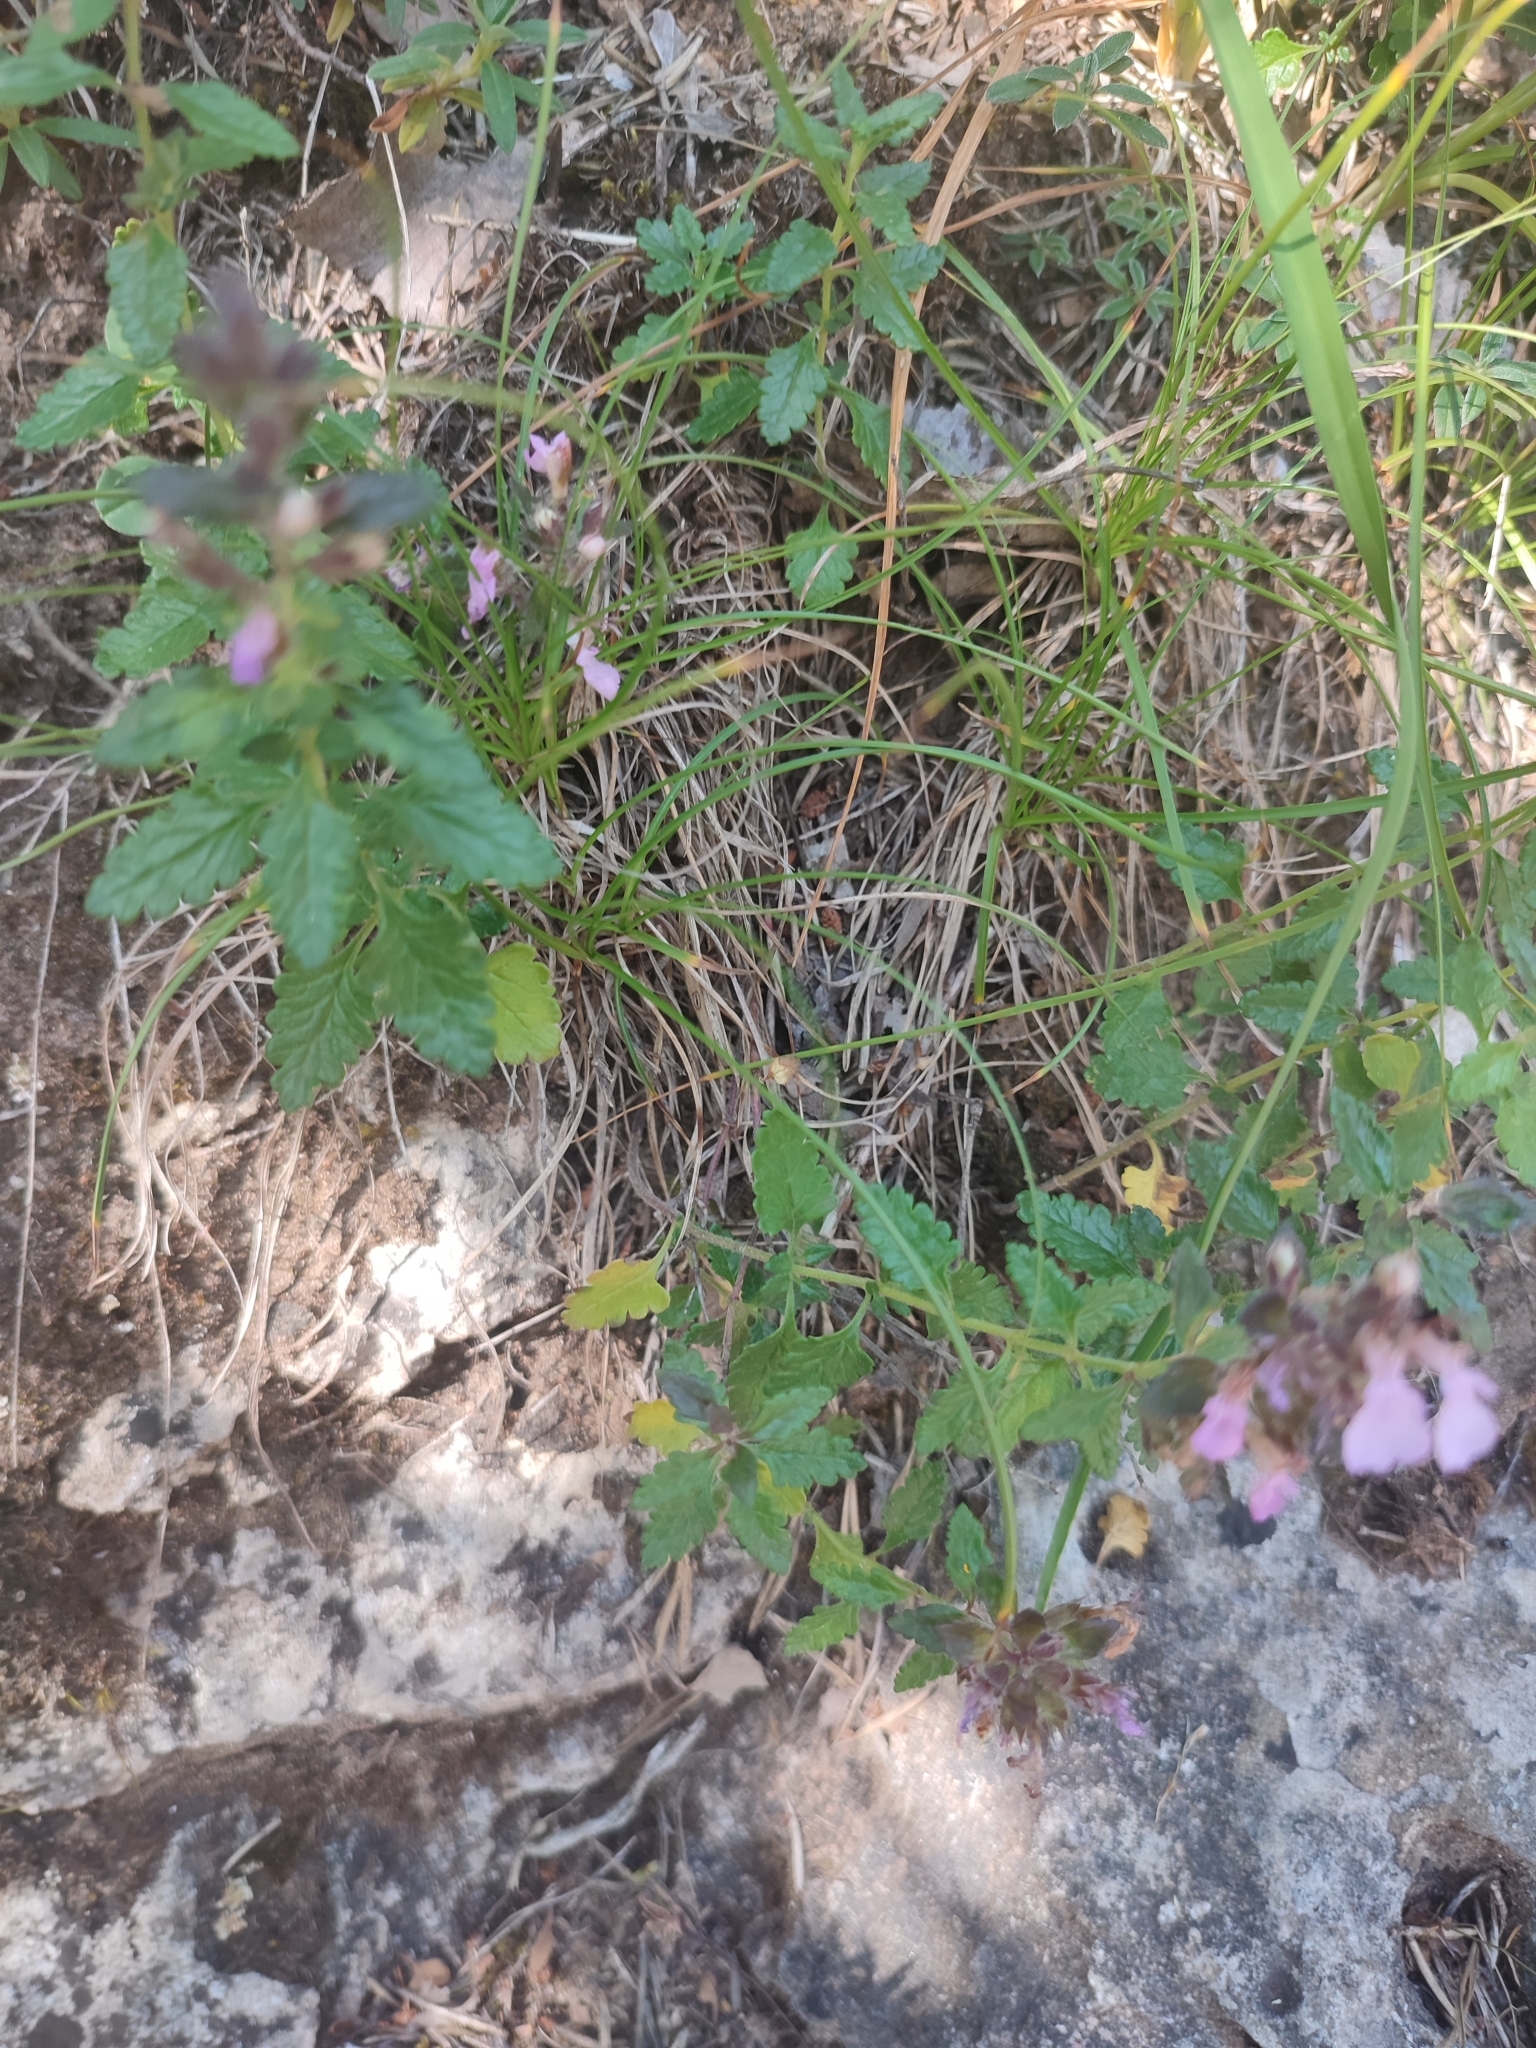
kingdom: Plantae
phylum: Tracheophyta
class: Magnoliopsida
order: Lamiales
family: Lamiaceae
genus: Teucrium
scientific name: Teucrium chamaedrys
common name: Wall germander
